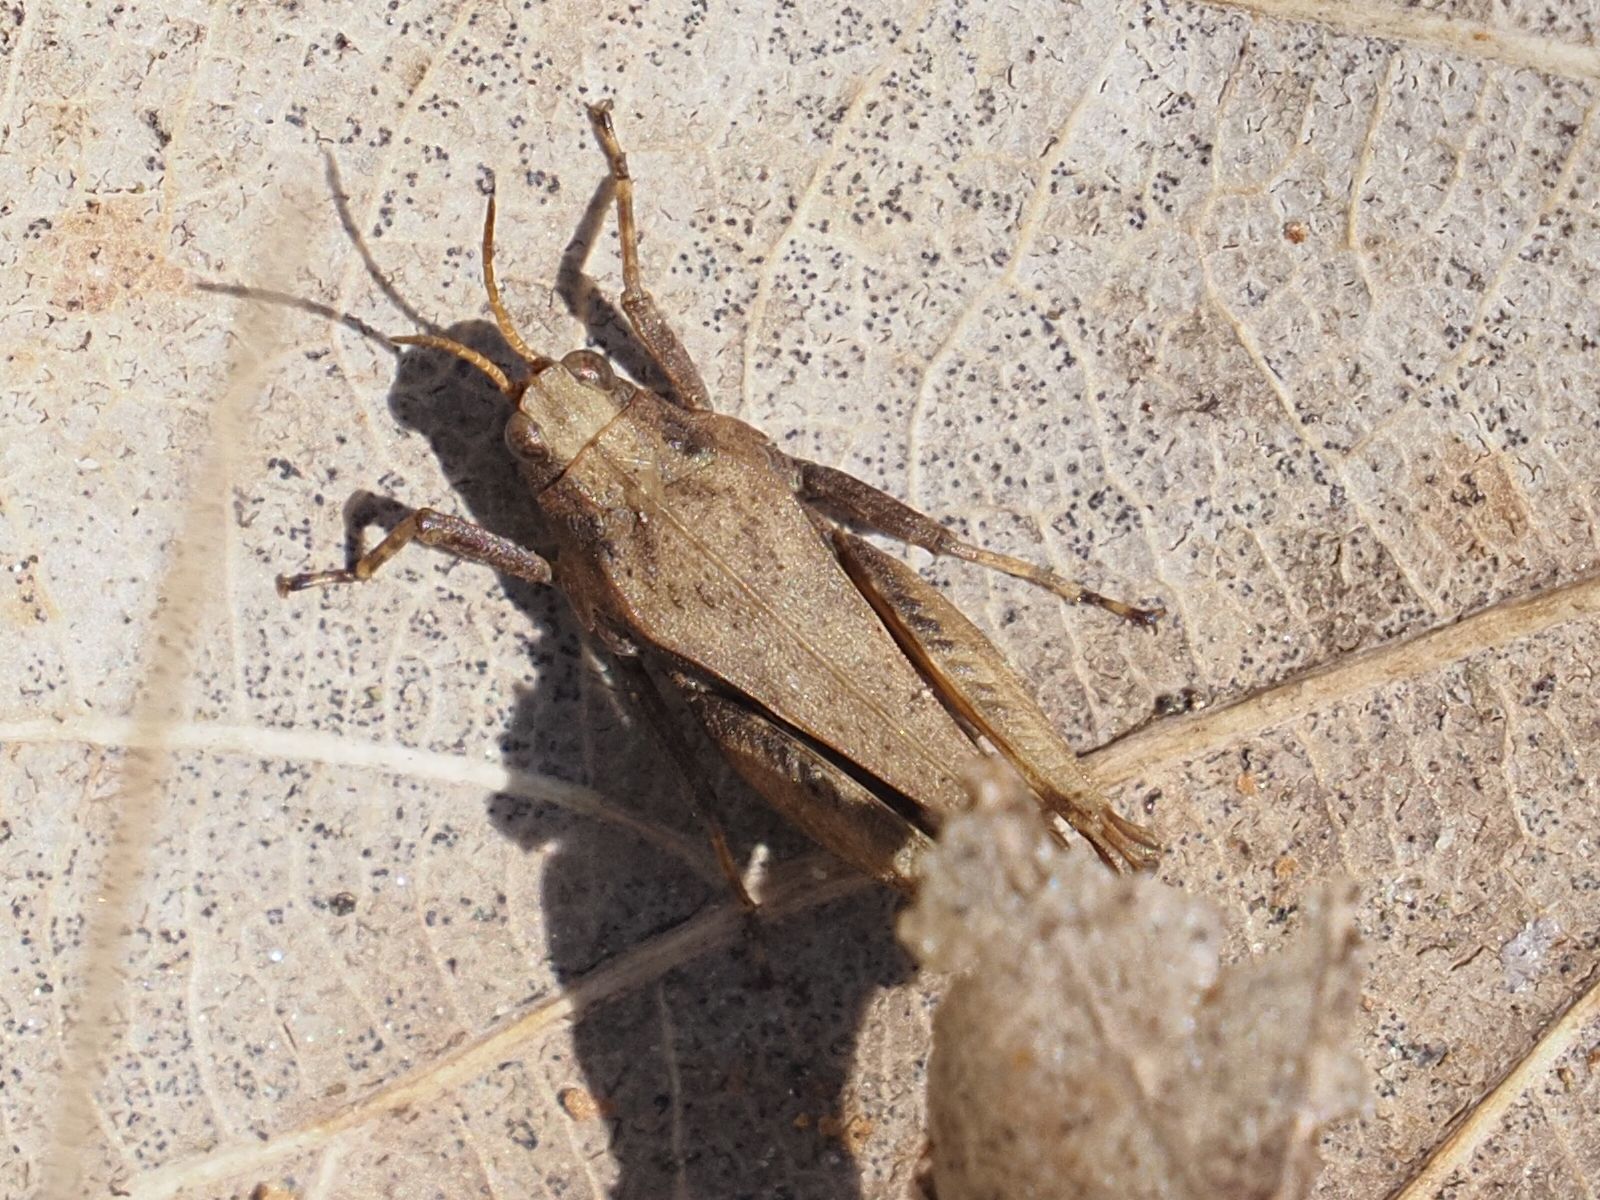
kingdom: Animalia
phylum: Arthropoda
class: Insecta
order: Orthoptera
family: Tetrigidae
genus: Tetrix
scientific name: Tetrix subulata
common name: Slender ground-hopper
